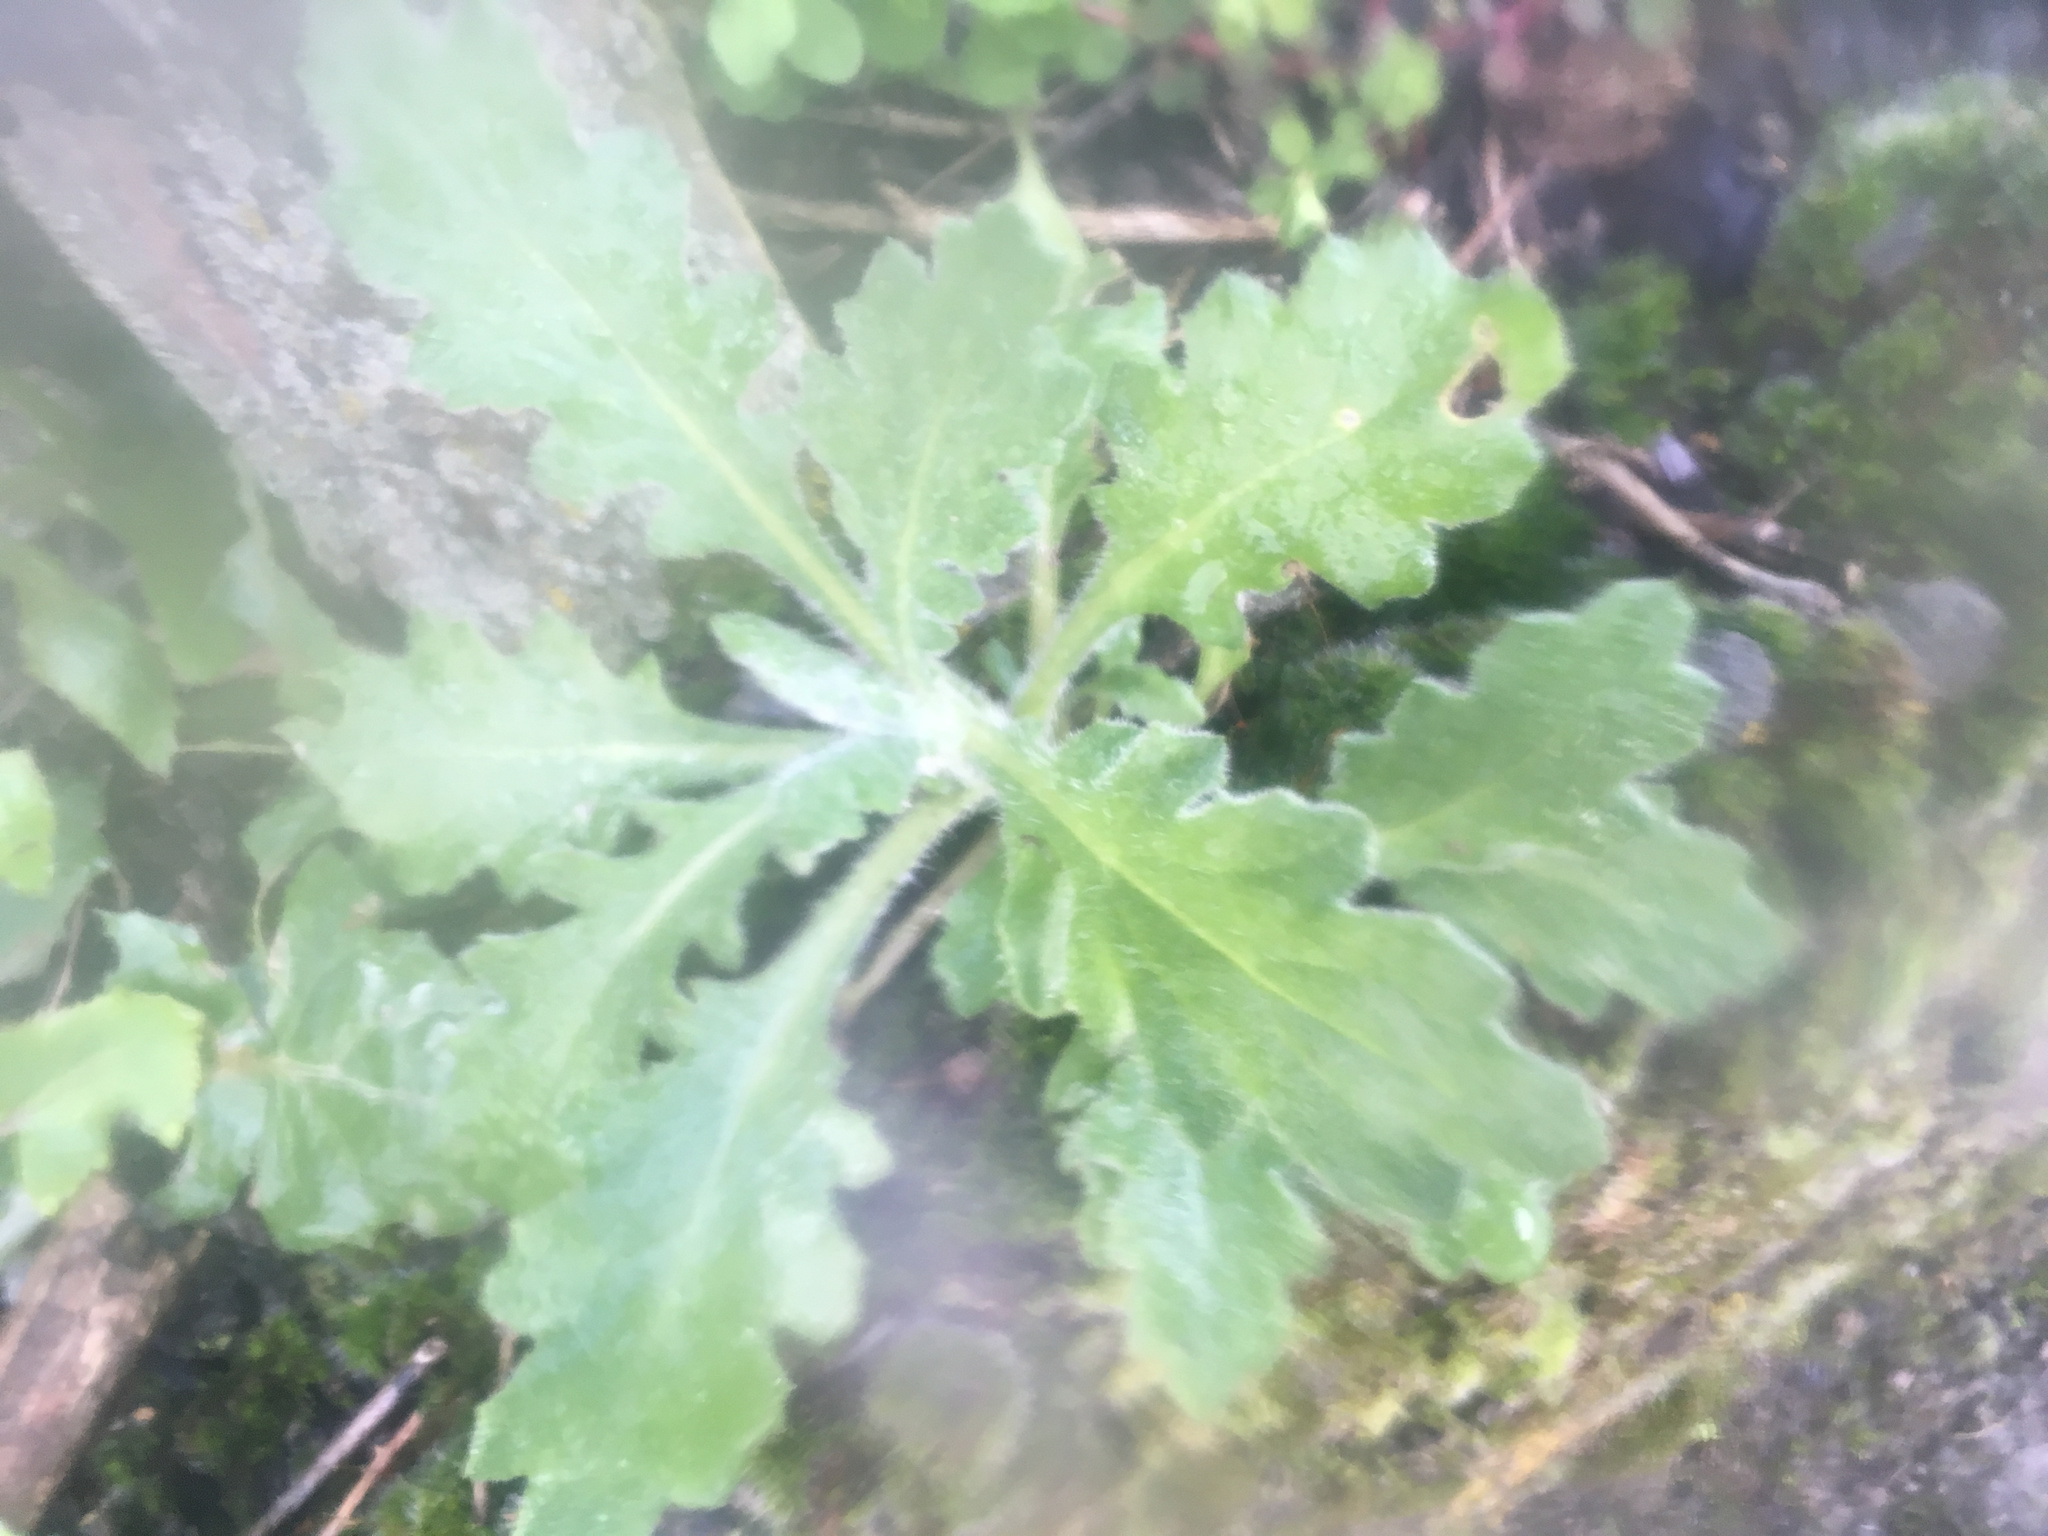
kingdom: Plantae
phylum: Tracheophyta
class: Magnoliopsida
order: Asterales
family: Asteraceae
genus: Senecio
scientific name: Senecio glomeratus
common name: Cutleaf burnweed
